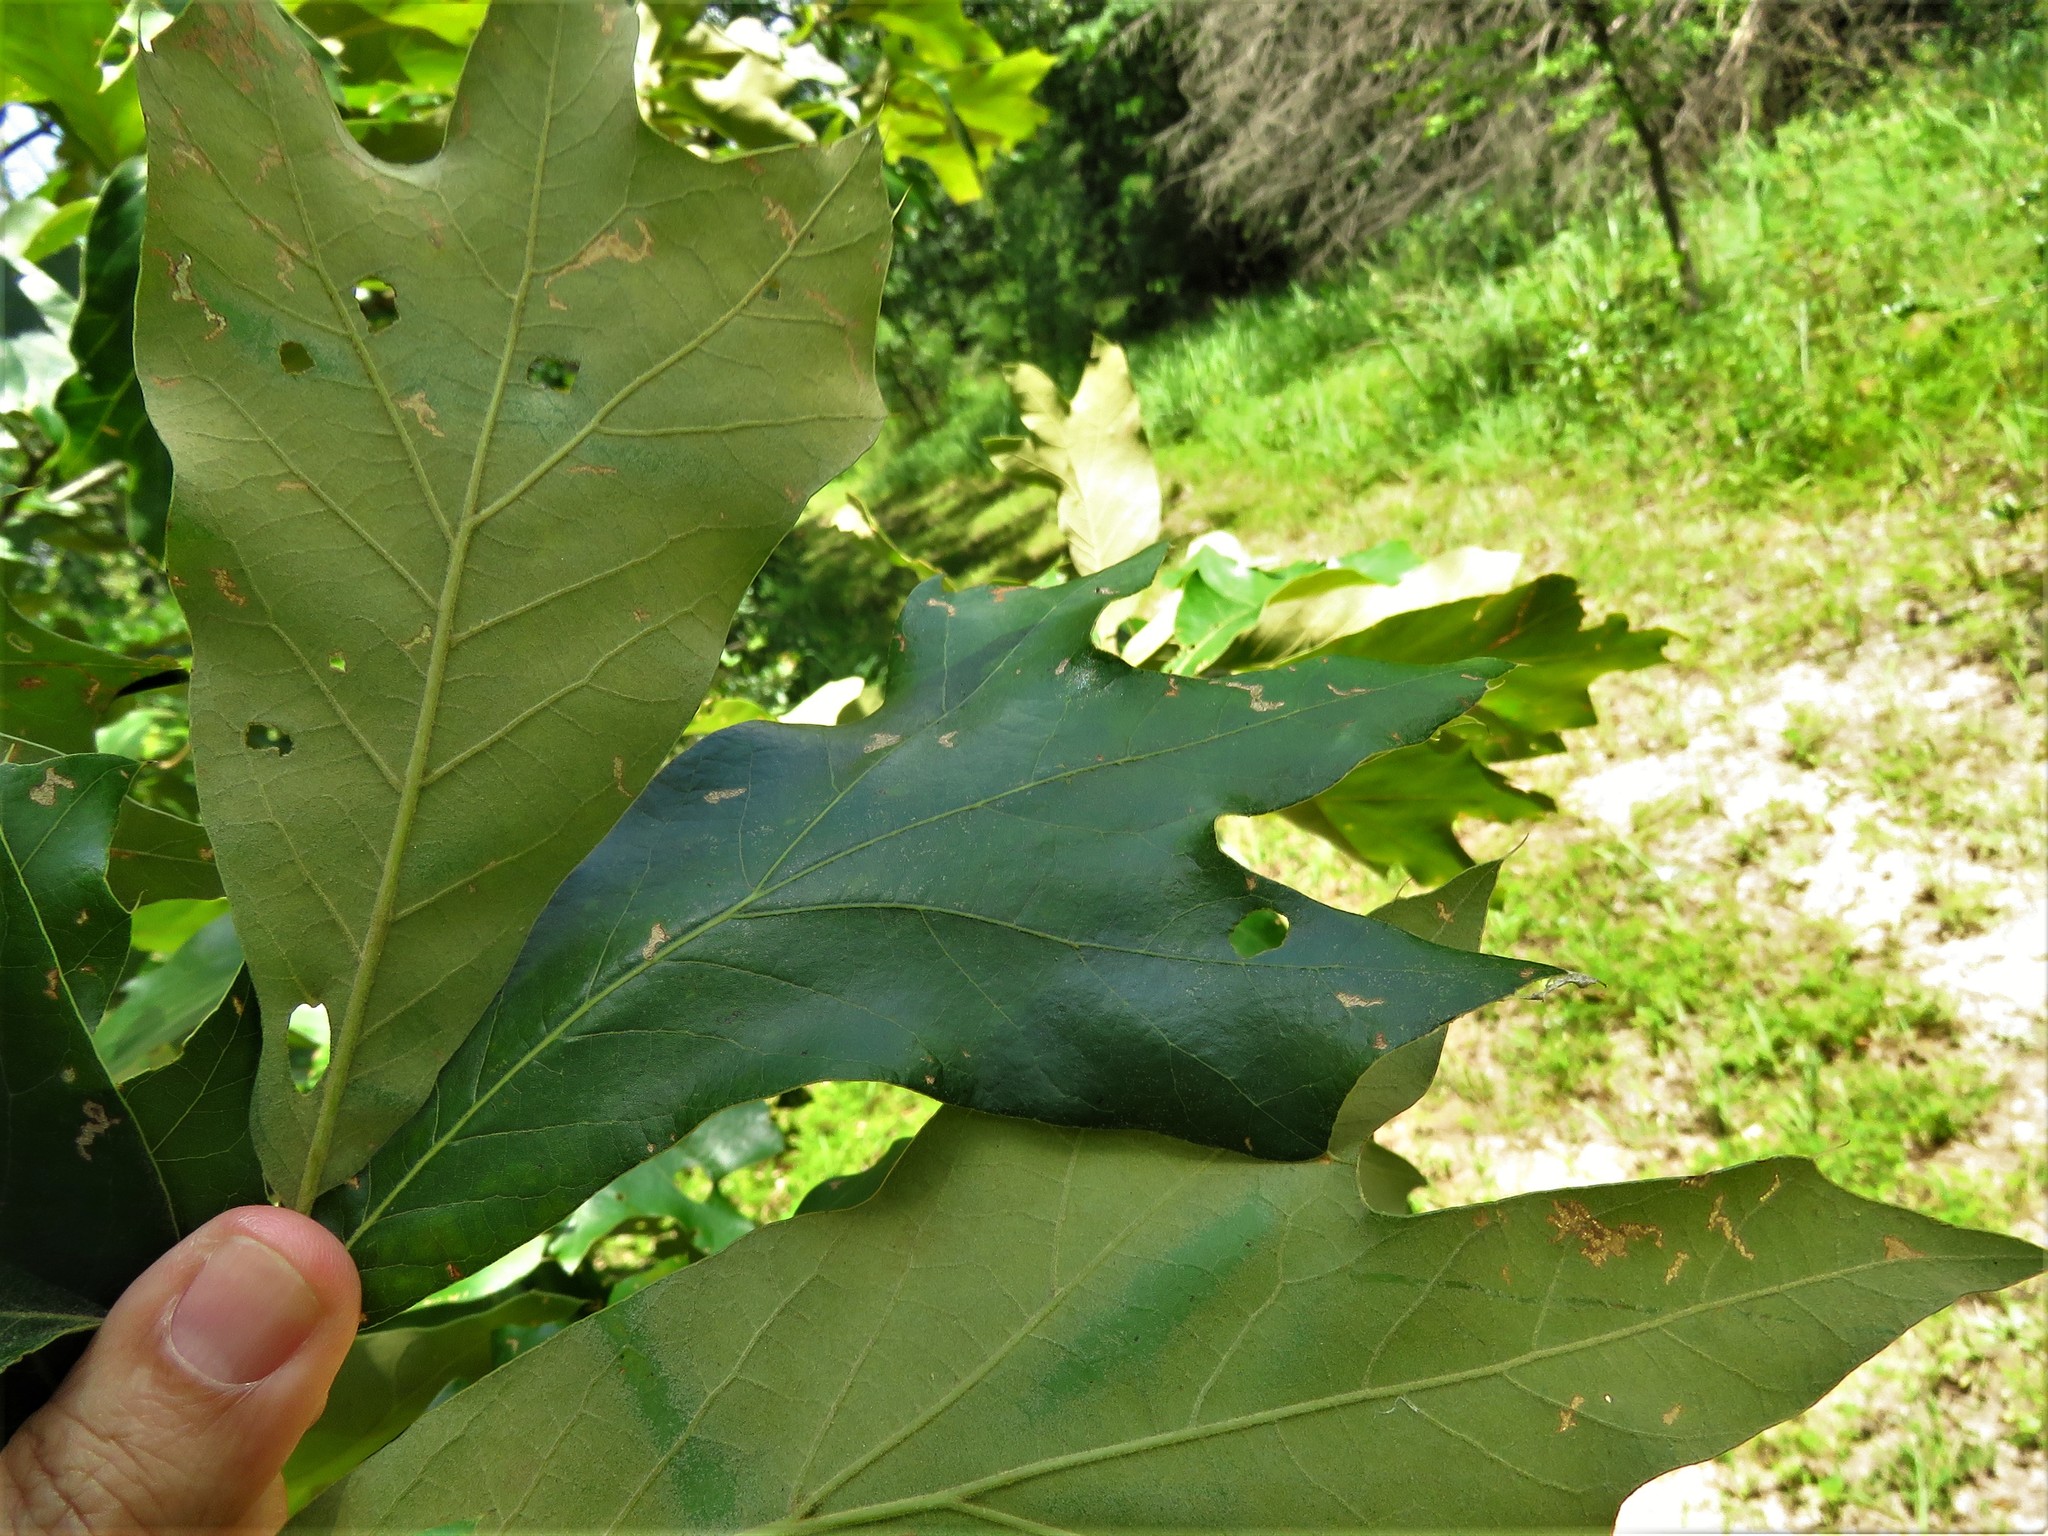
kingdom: Plantae
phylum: Tracheophyta
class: Magnoliopsida
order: Fagales
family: Fagaceae
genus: Quercus
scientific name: Quercus falcata
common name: Southern red oak
